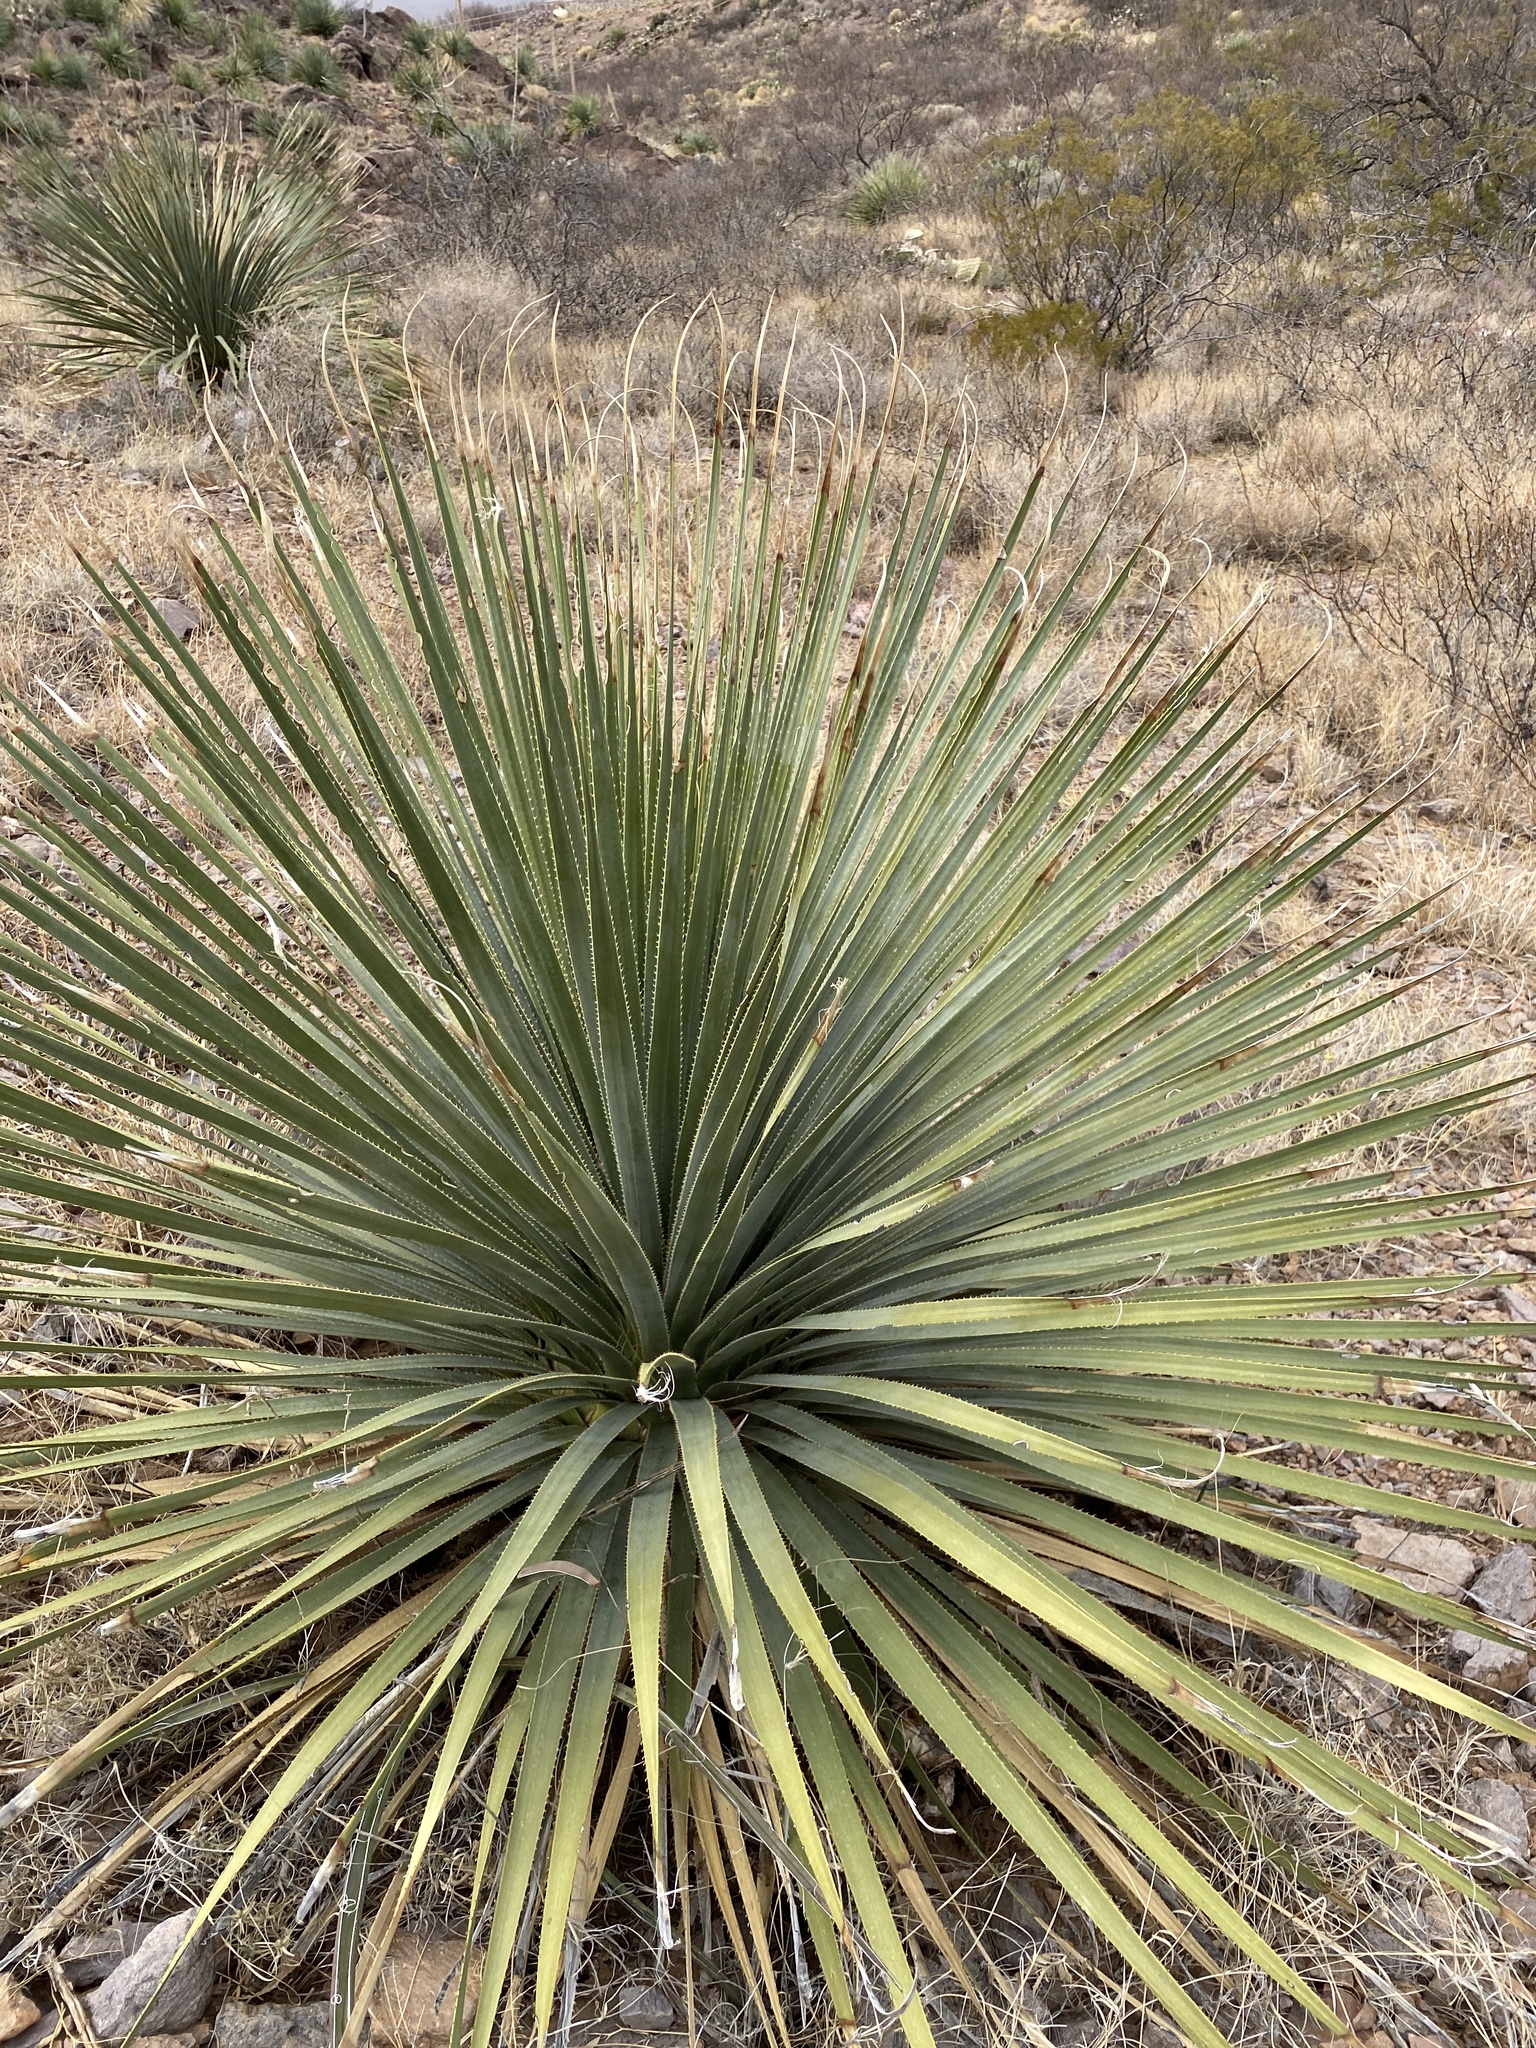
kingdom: Plantae
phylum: Tracheophyta
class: Liliopsida
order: Asparagales
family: Asparagaceae
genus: Dasylirion
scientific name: Dasylirion wheeleri
